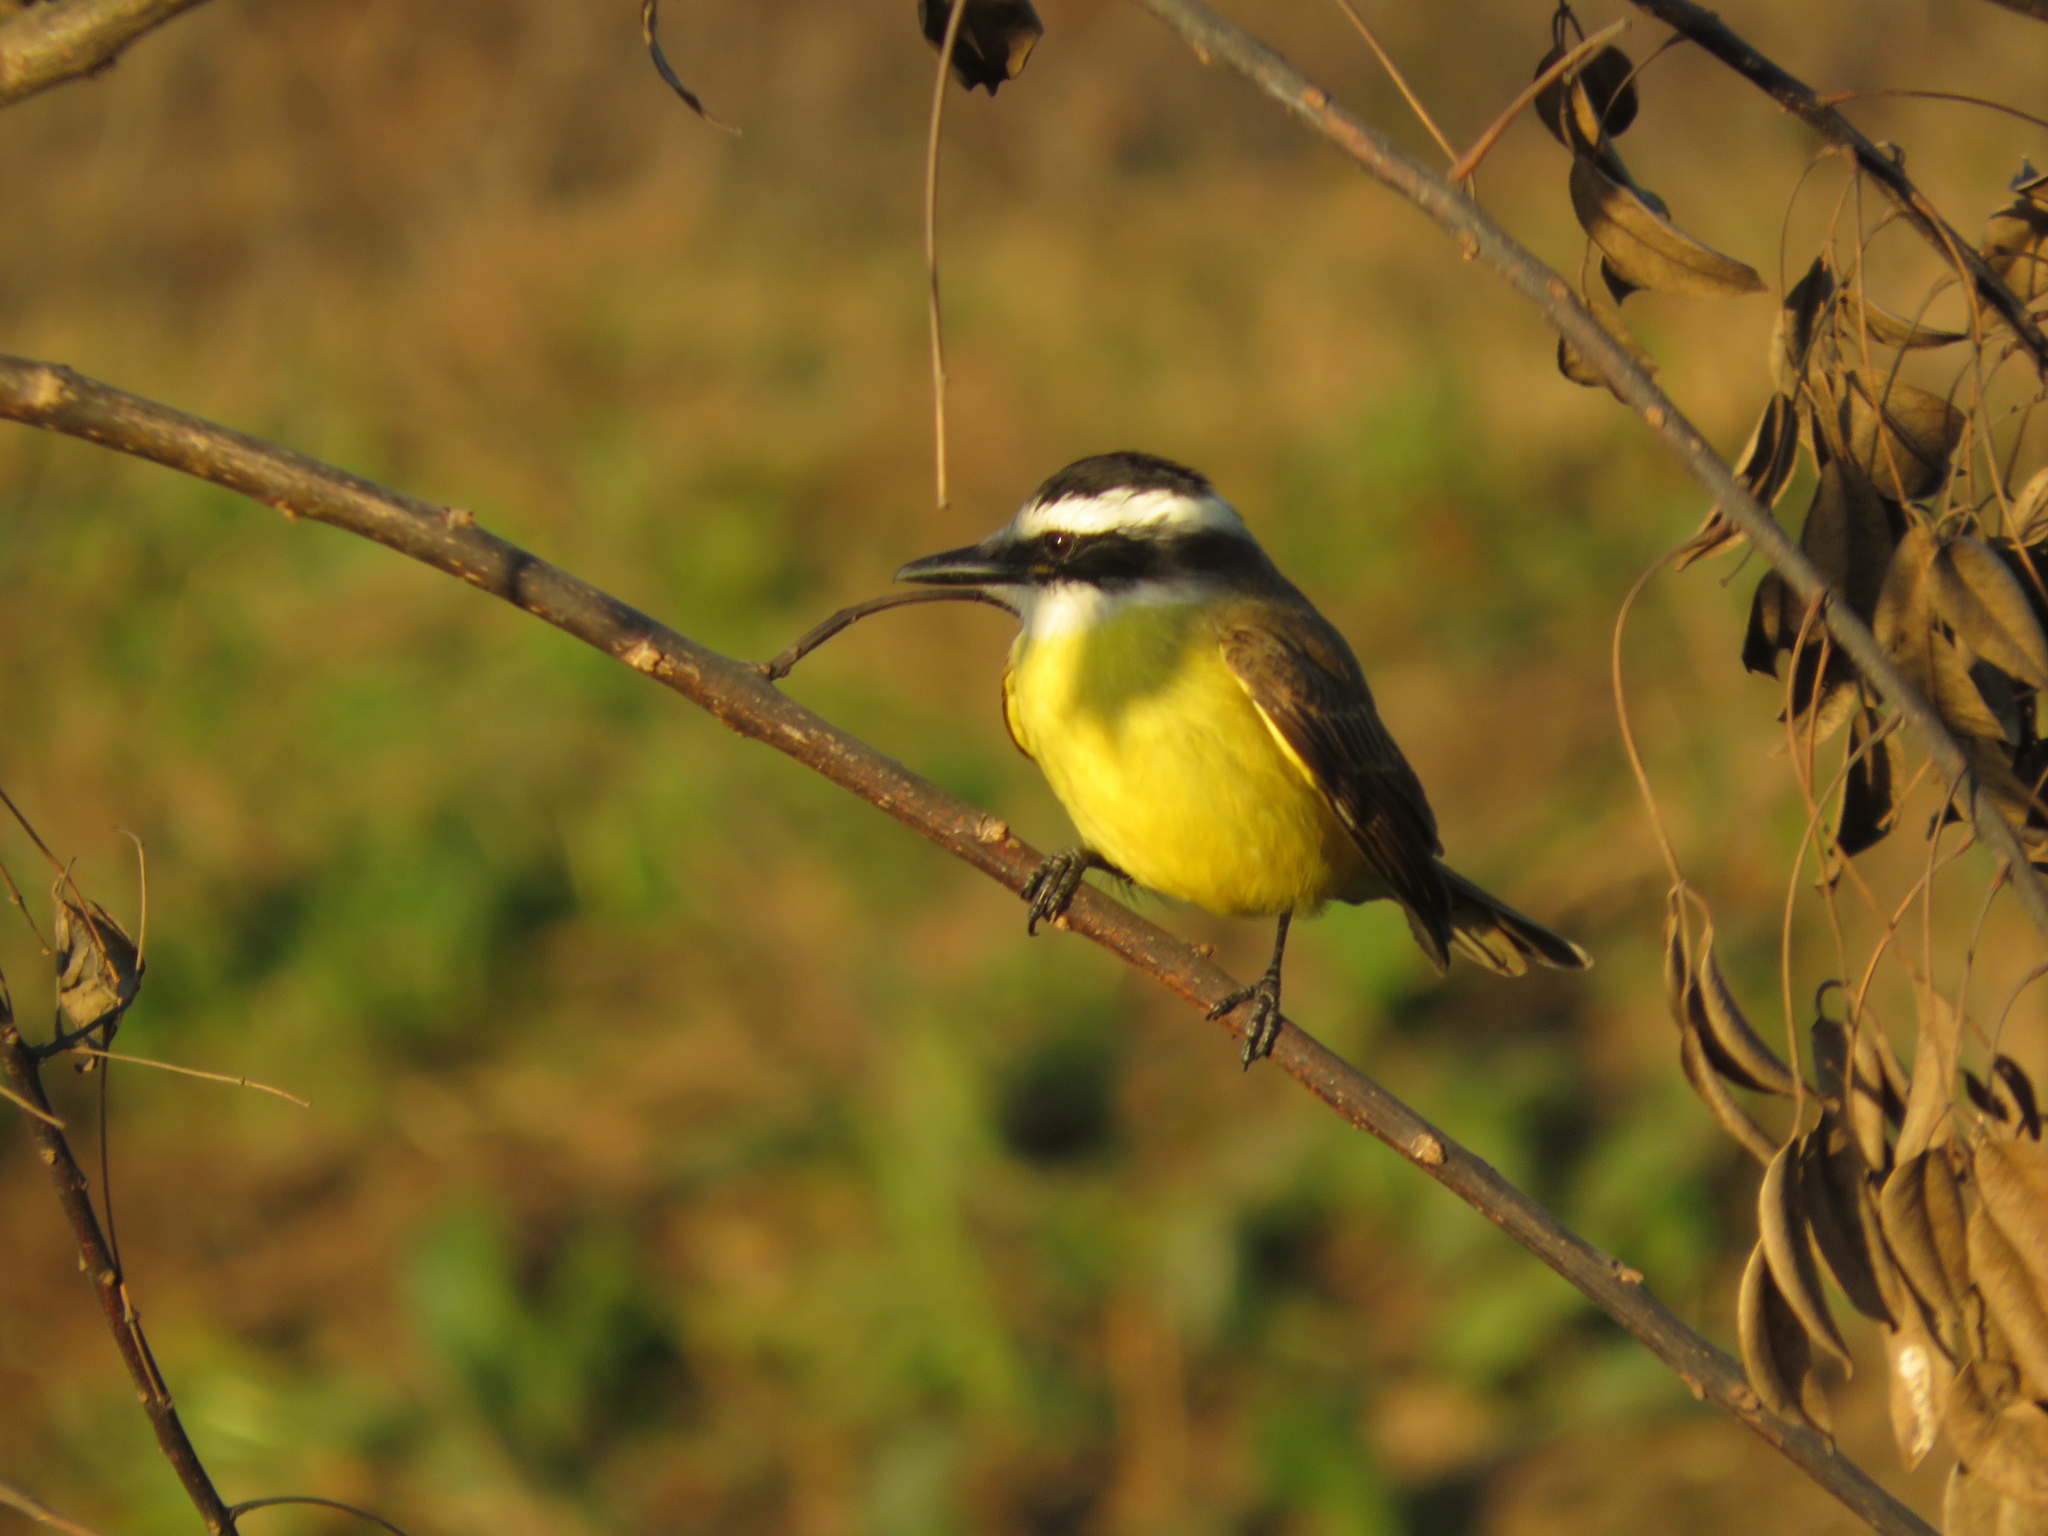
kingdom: Animalia
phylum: Chordata
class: Aves
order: Passeriformes
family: Tyrannidae
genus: Pitangus
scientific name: Pitangus sulphuratus
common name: Great kiskadee
